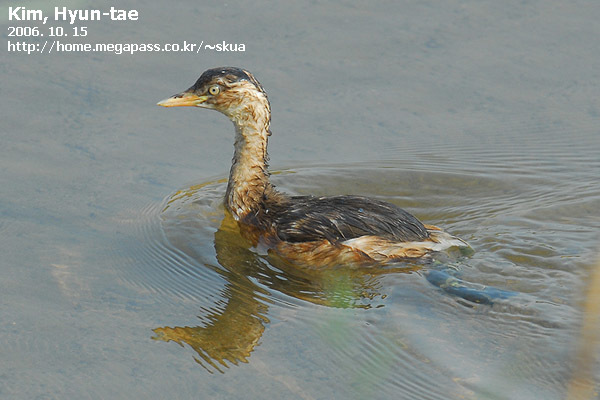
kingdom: Animalia
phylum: Chordata
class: Aves
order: Podicipediformes
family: Podicipedidae
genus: Tachybaptus
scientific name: Tachybaptus ruficollis
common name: Little grebe
